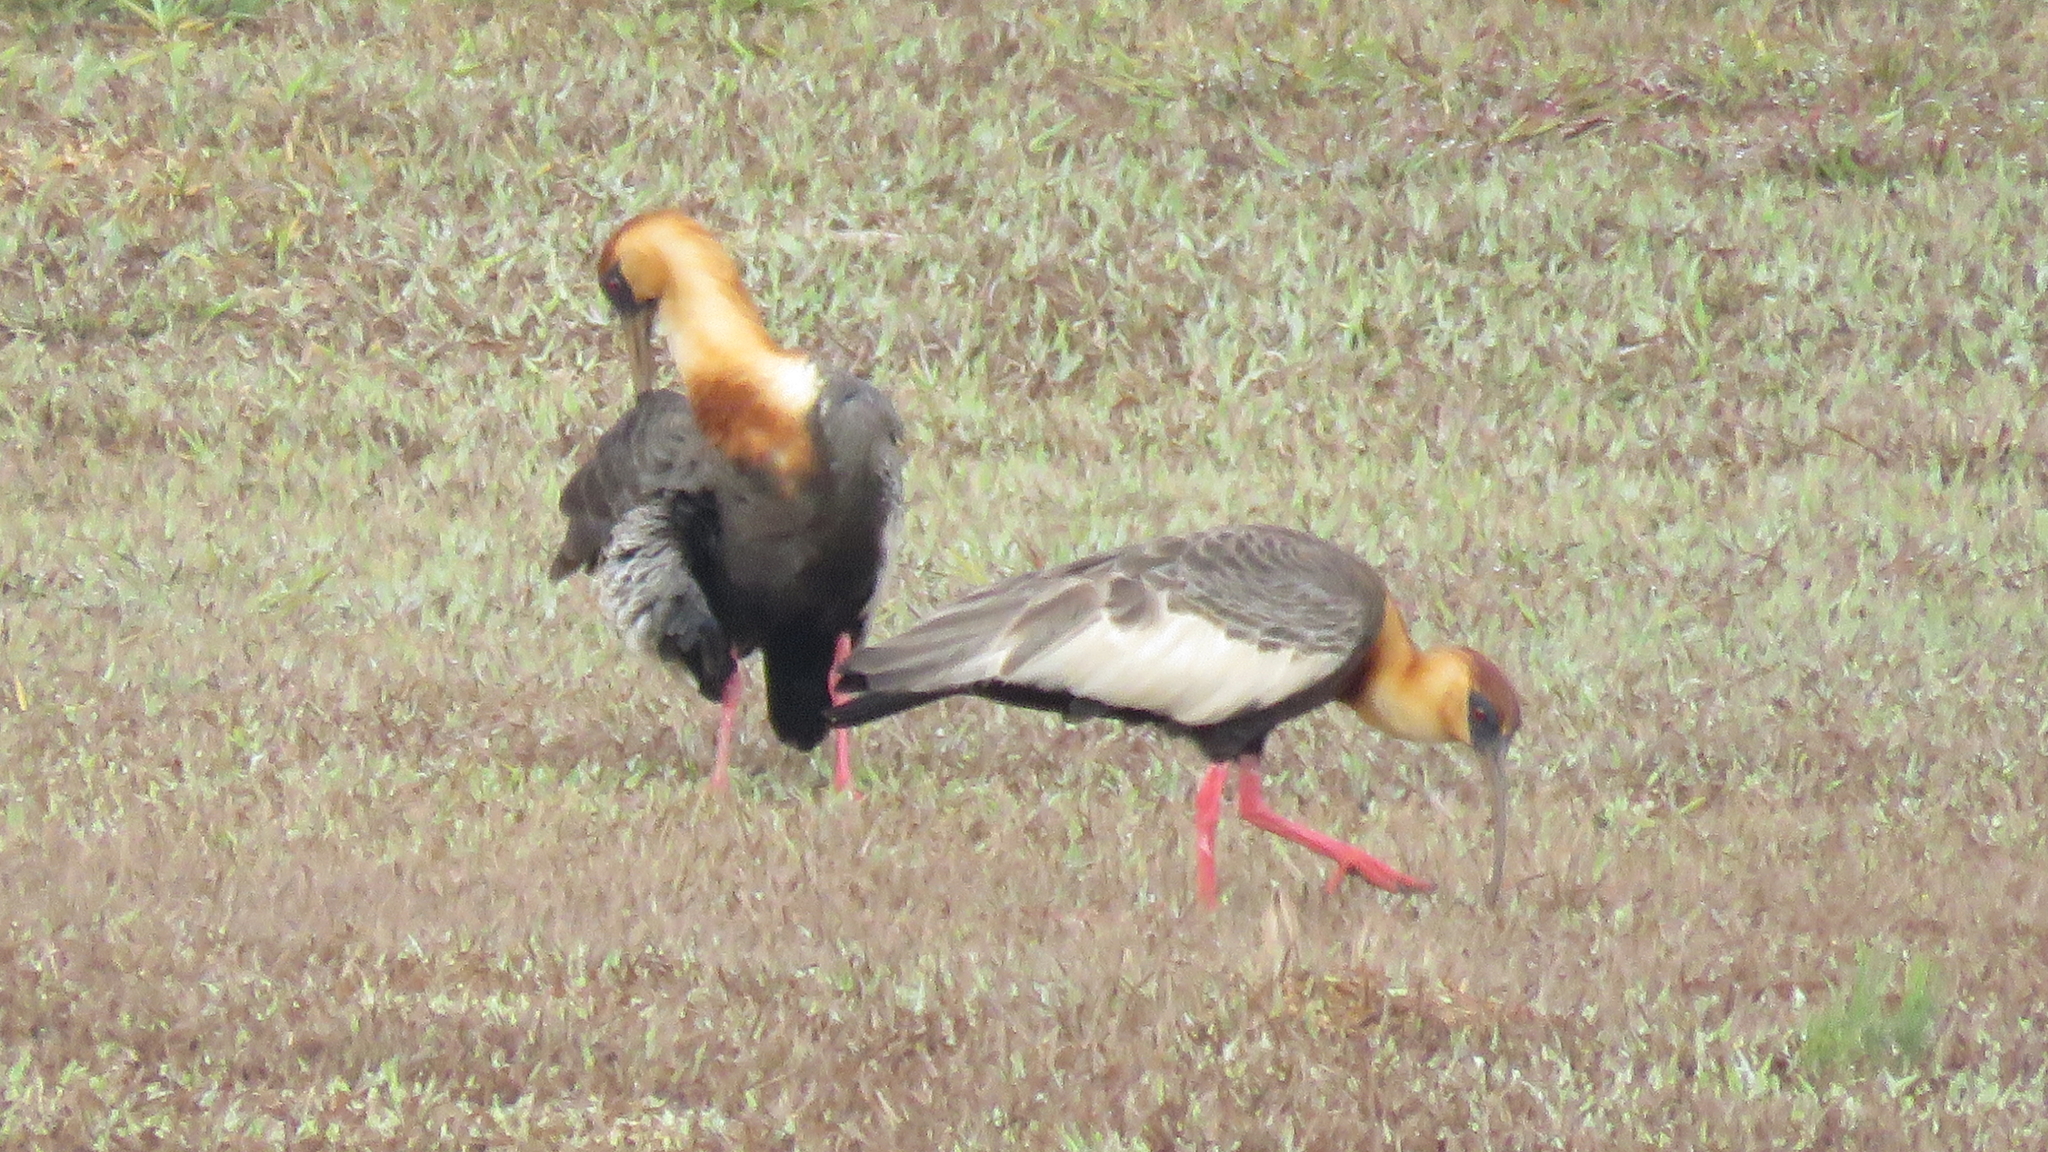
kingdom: Animalia
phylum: Chordata
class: Aves
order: Pelecaniformes
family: Threskiornithidae
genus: Theristicus
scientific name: Theristicus caudatus
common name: Buff-necked ibis
